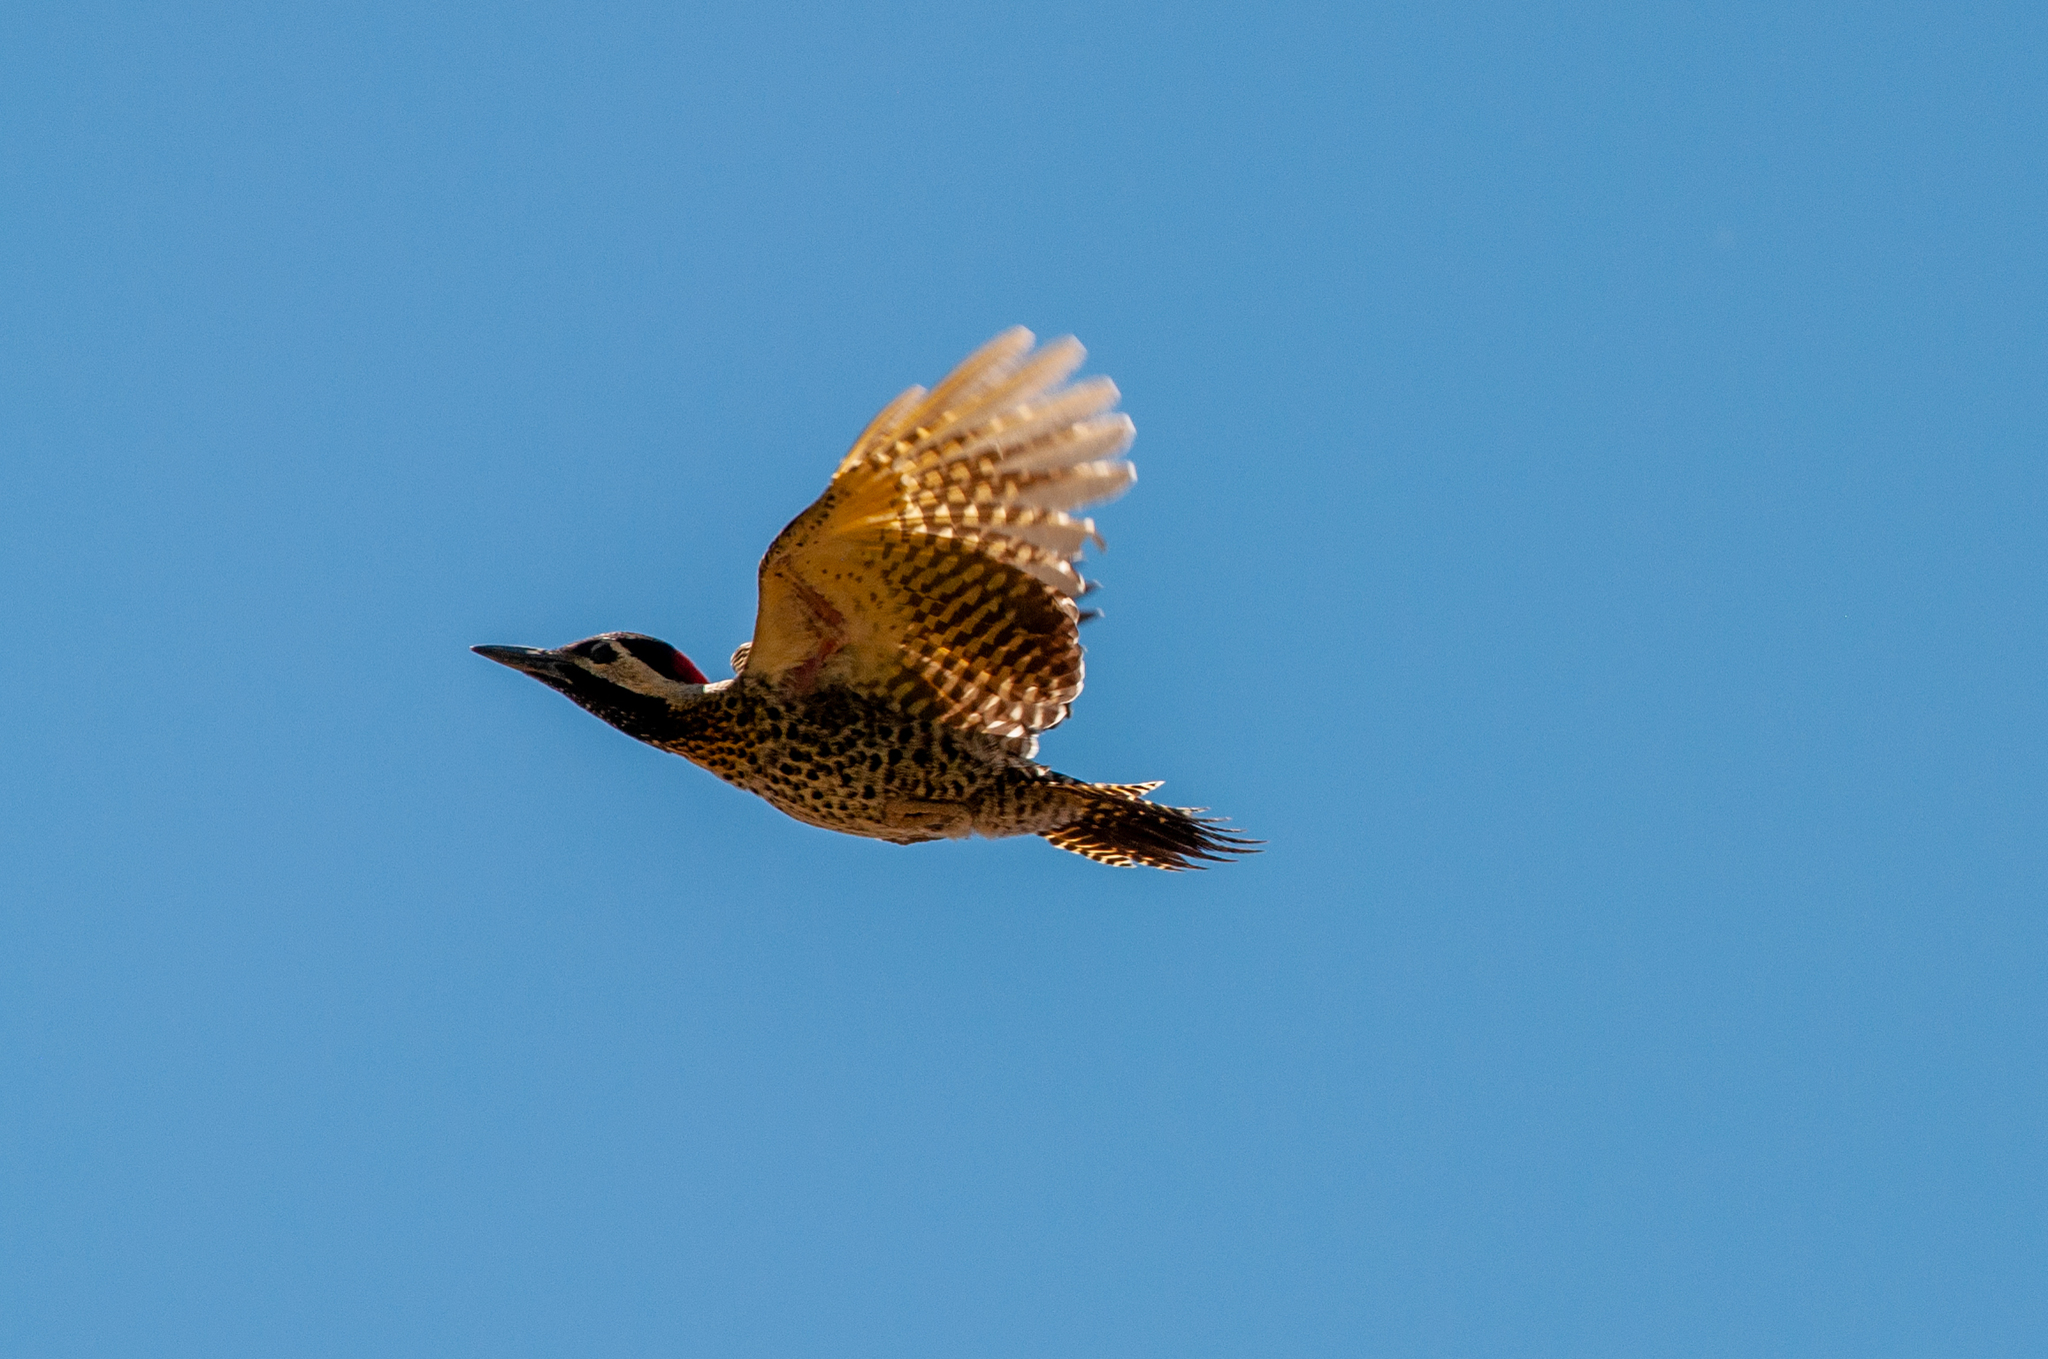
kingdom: Animalia
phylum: Chordata
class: Aves
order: Piciformes
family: Picidae
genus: Colaptes
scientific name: Colaptes melanochloros
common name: Green-barred woodpecker
